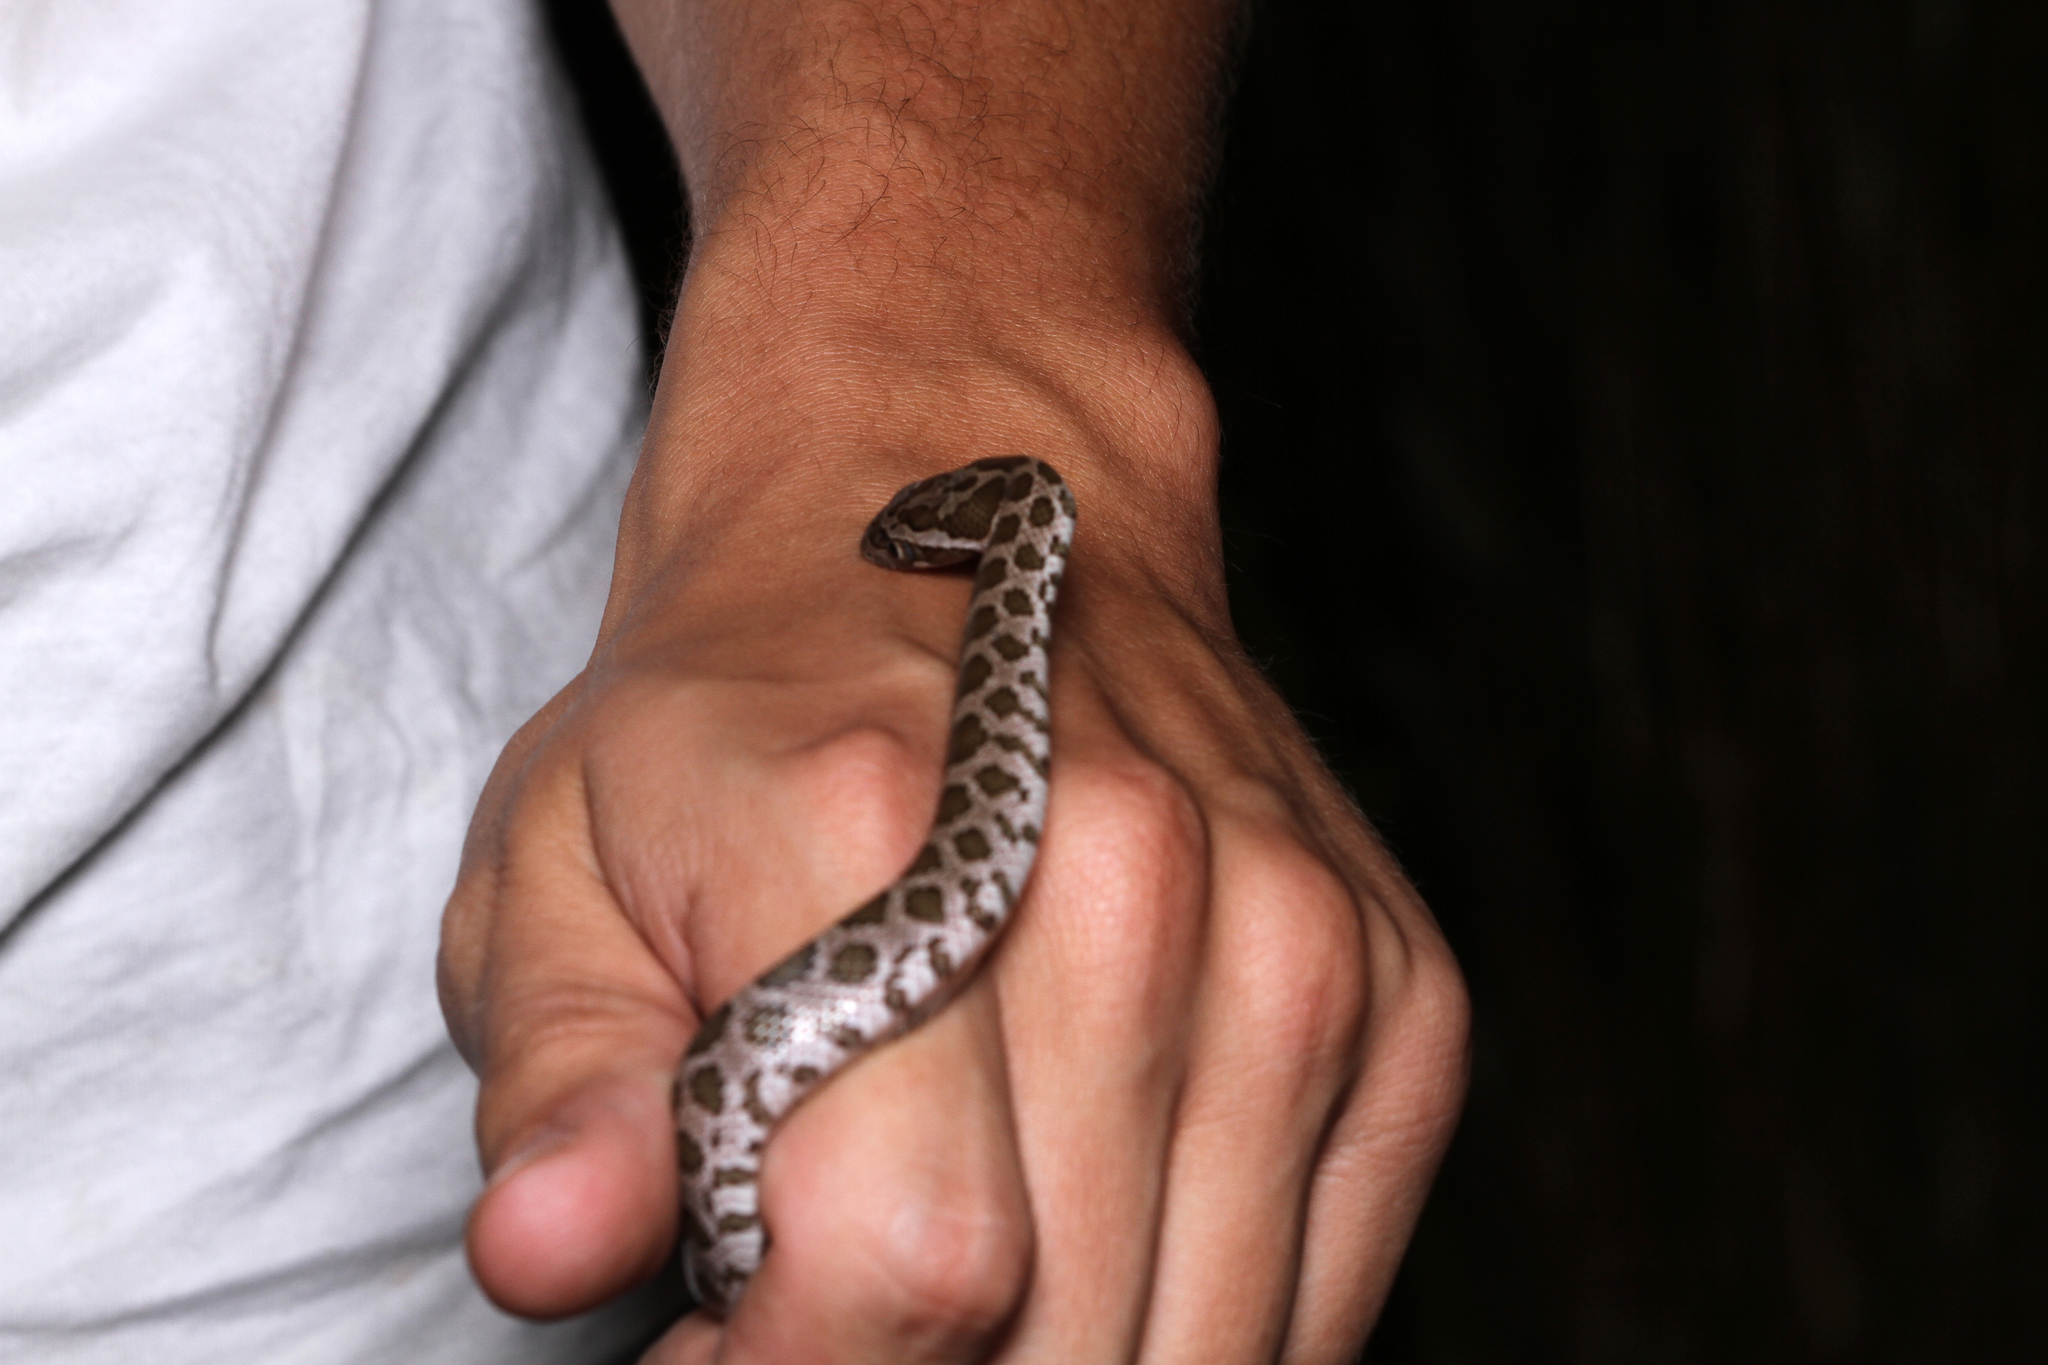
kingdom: Animalia
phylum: Chordata
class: Squamata
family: Colubridae
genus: Pantherophis
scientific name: Pantherophis emoryi
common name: Great plains rat snake
